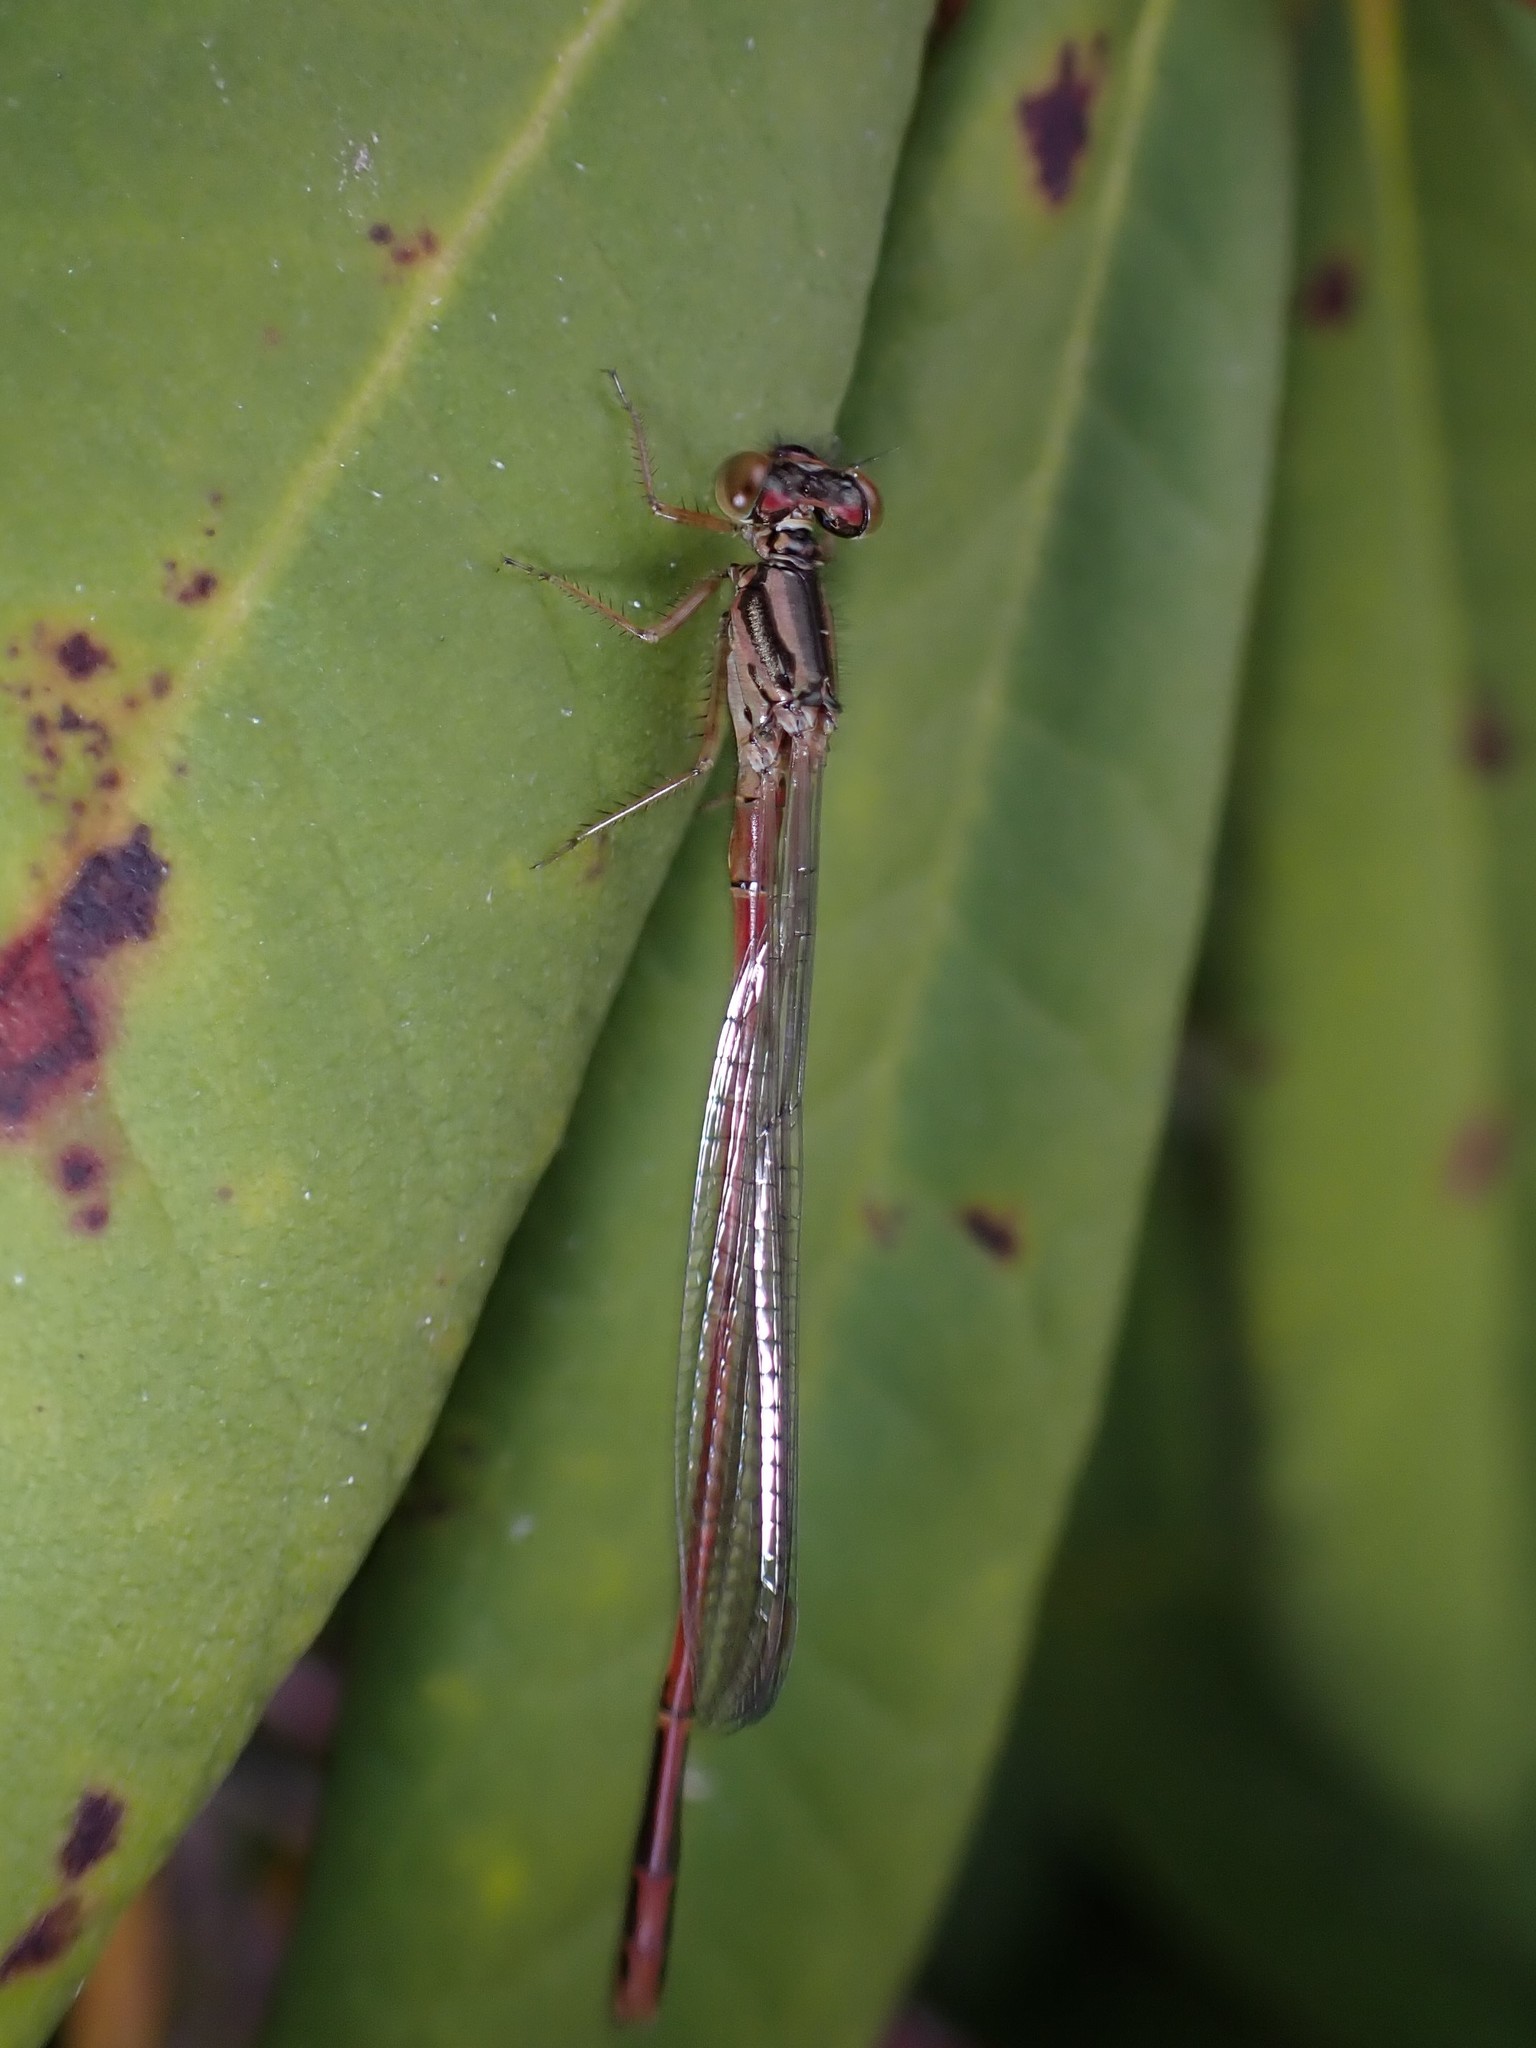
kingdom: Animalia
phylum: Arthropoda
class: Insecta
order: Odonata
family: Coenagrionidae
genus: Xanthocnemis
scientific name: Xanthocnemis zealandica
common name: Common redcoat damselfly
